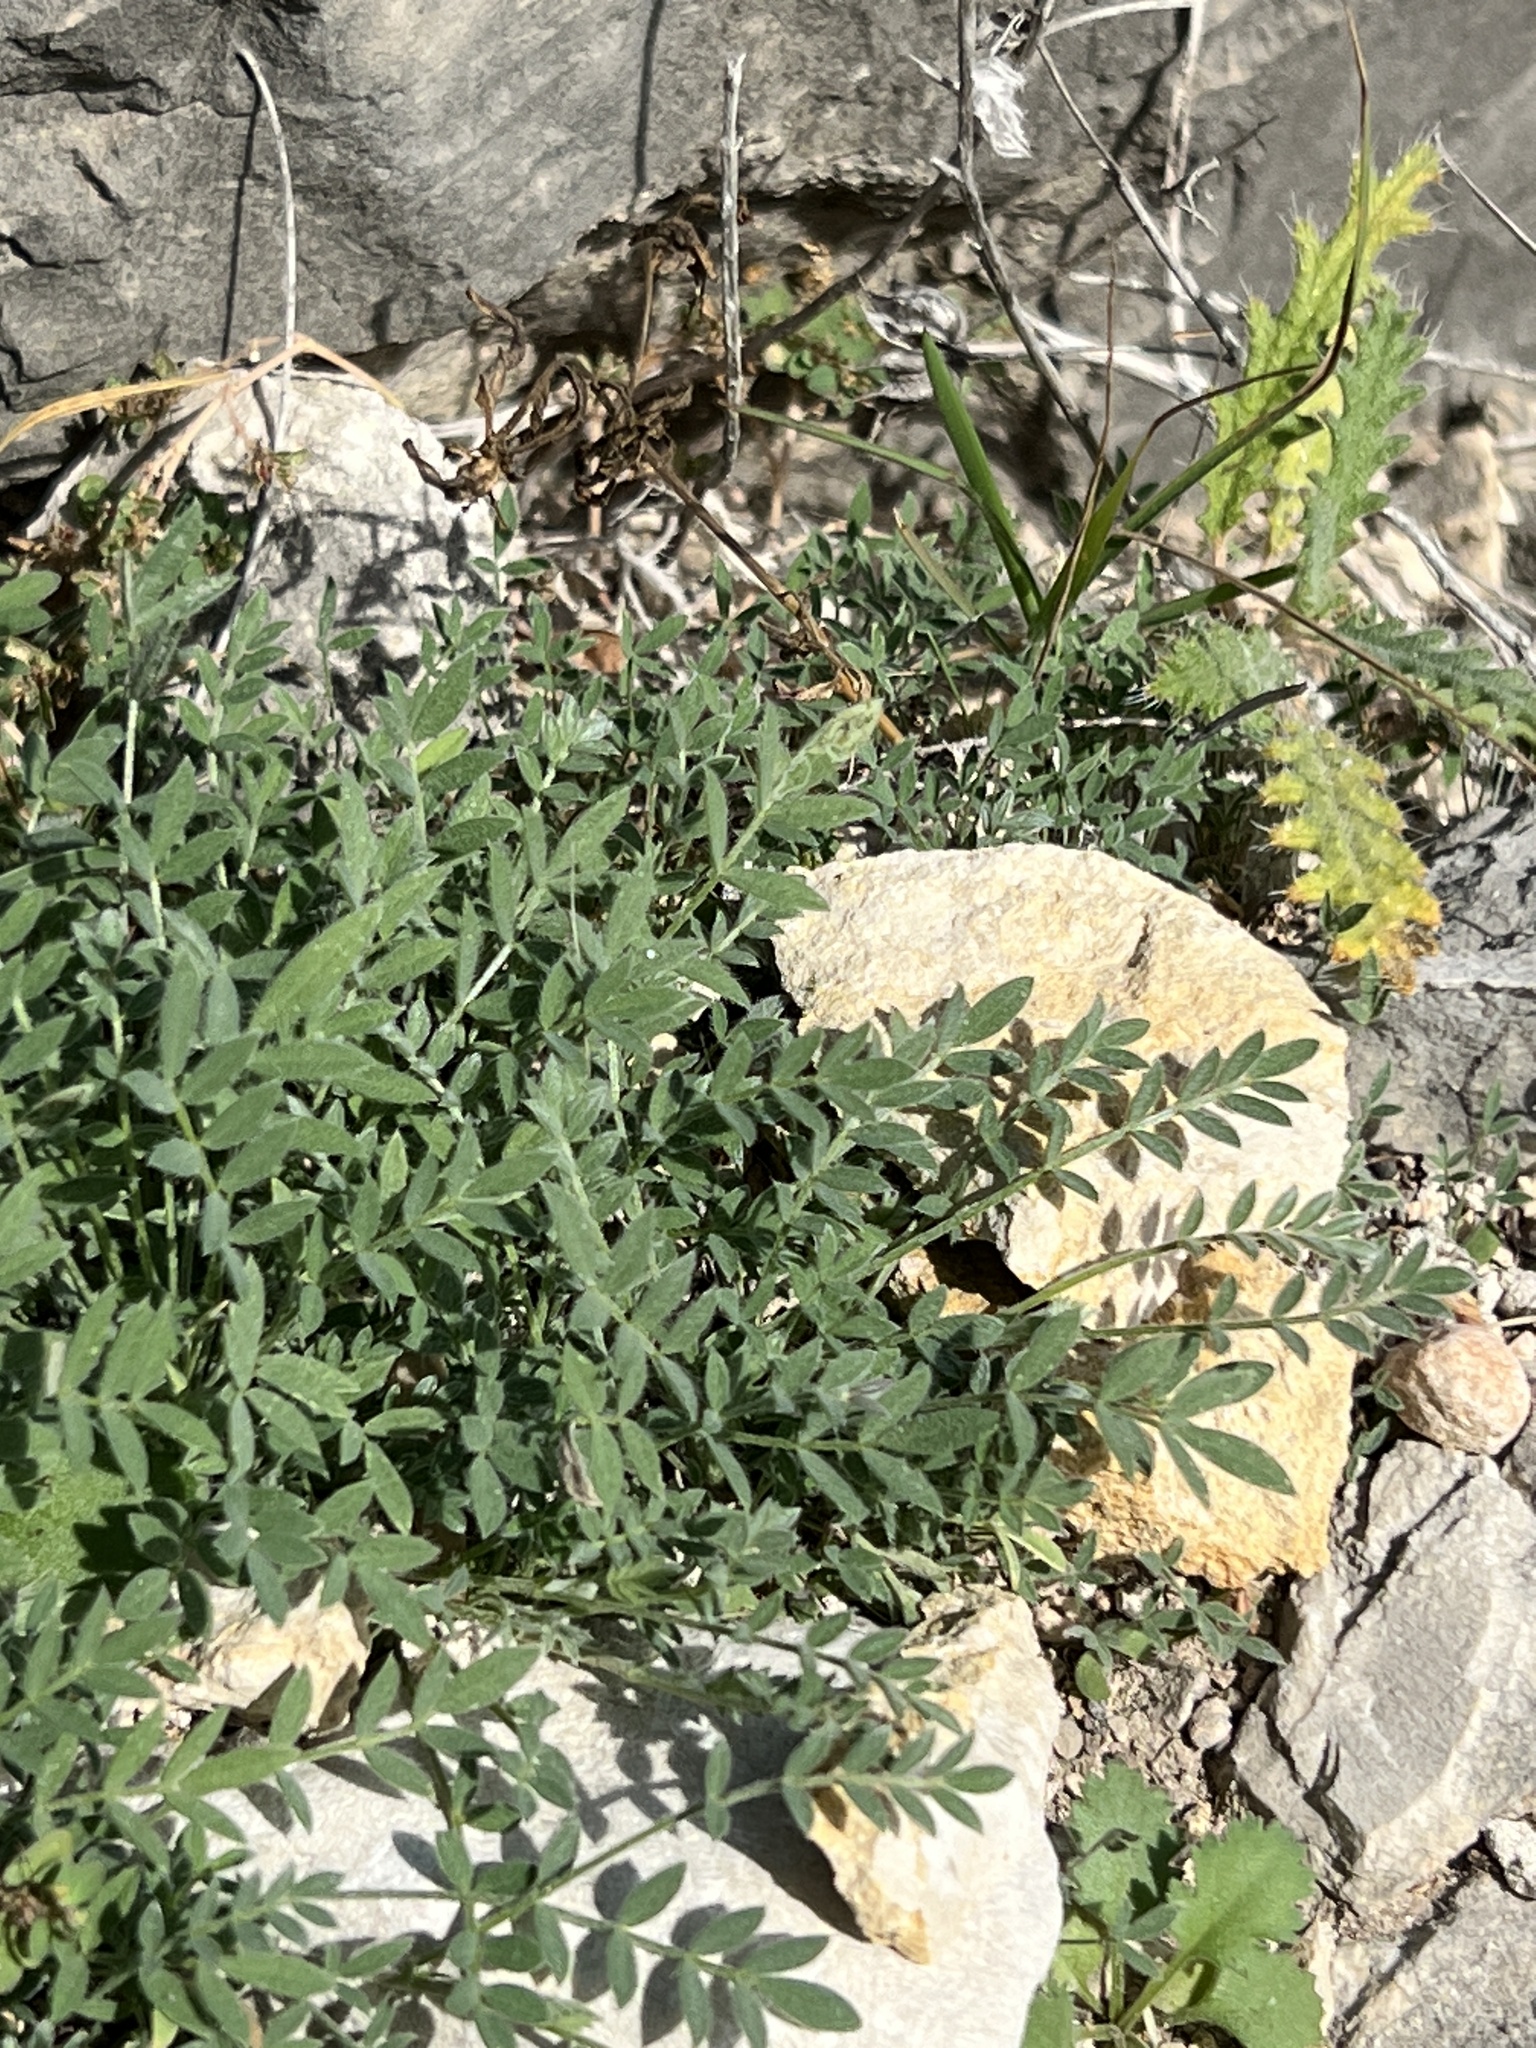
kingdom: Plantae
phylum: Tracheophyta
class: Magnoliopsida
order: Fabales
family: Fabaceae
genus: Astragalus
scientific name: Astragalus nuttallianus
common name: Smallflowered milkvetch
